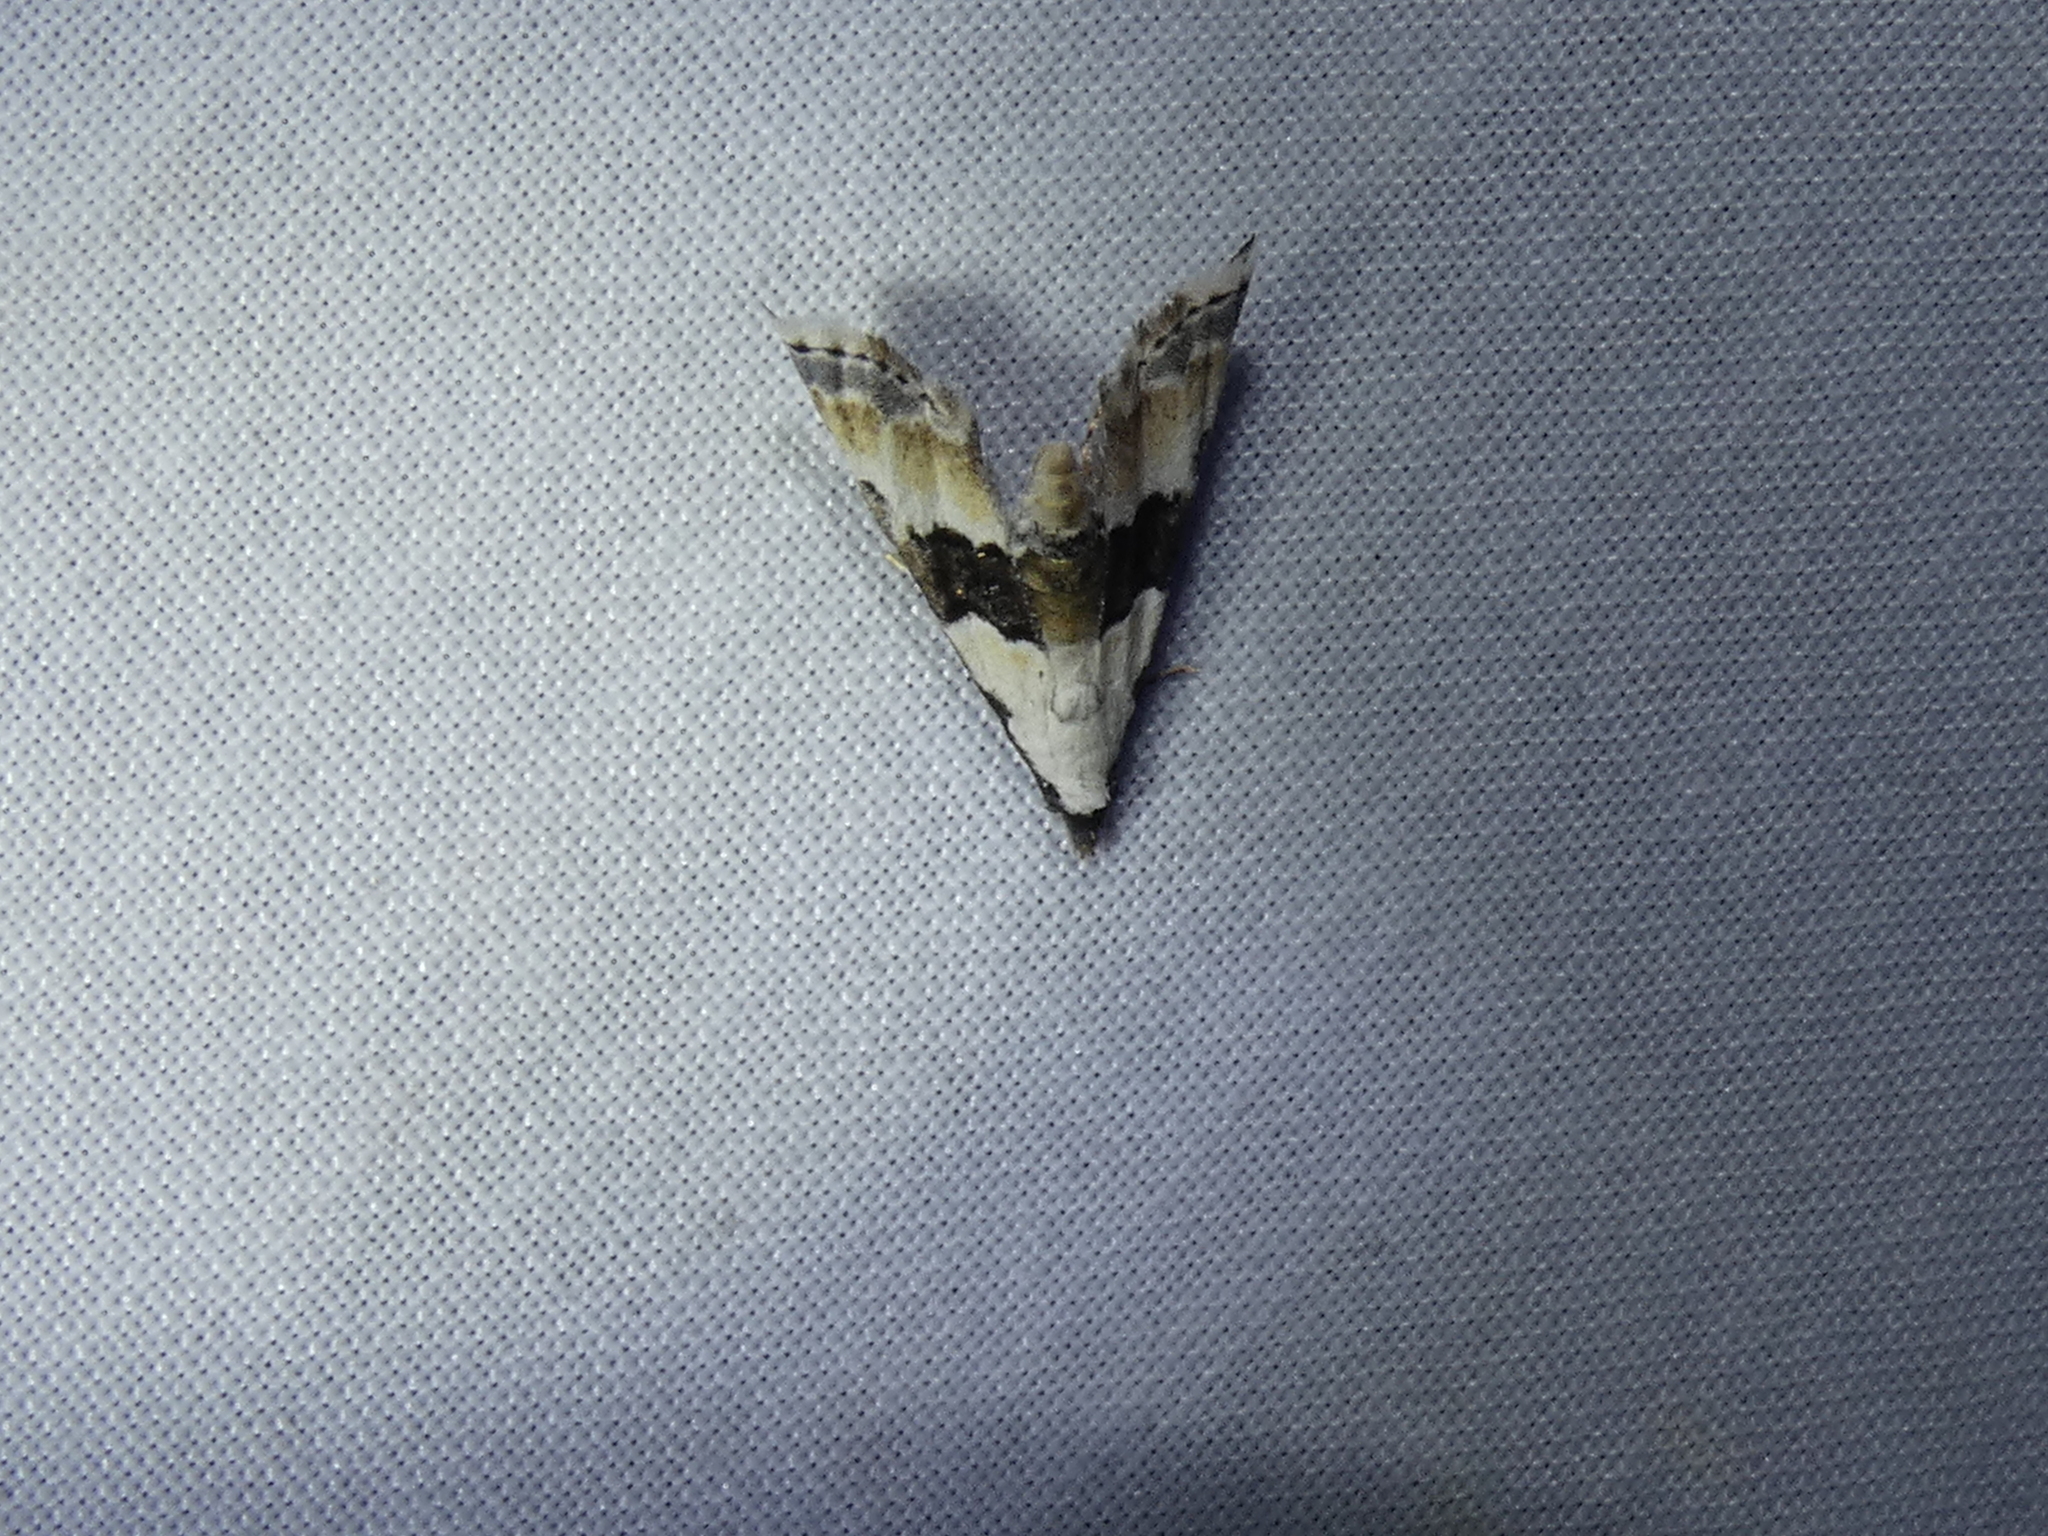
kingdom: Animalia
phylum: Arthropoda
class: Insecta
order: Lepidoptera
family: Noctuidae
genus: Nigetia
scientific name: Nigetia formosalis
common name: Thin-winged owlet
